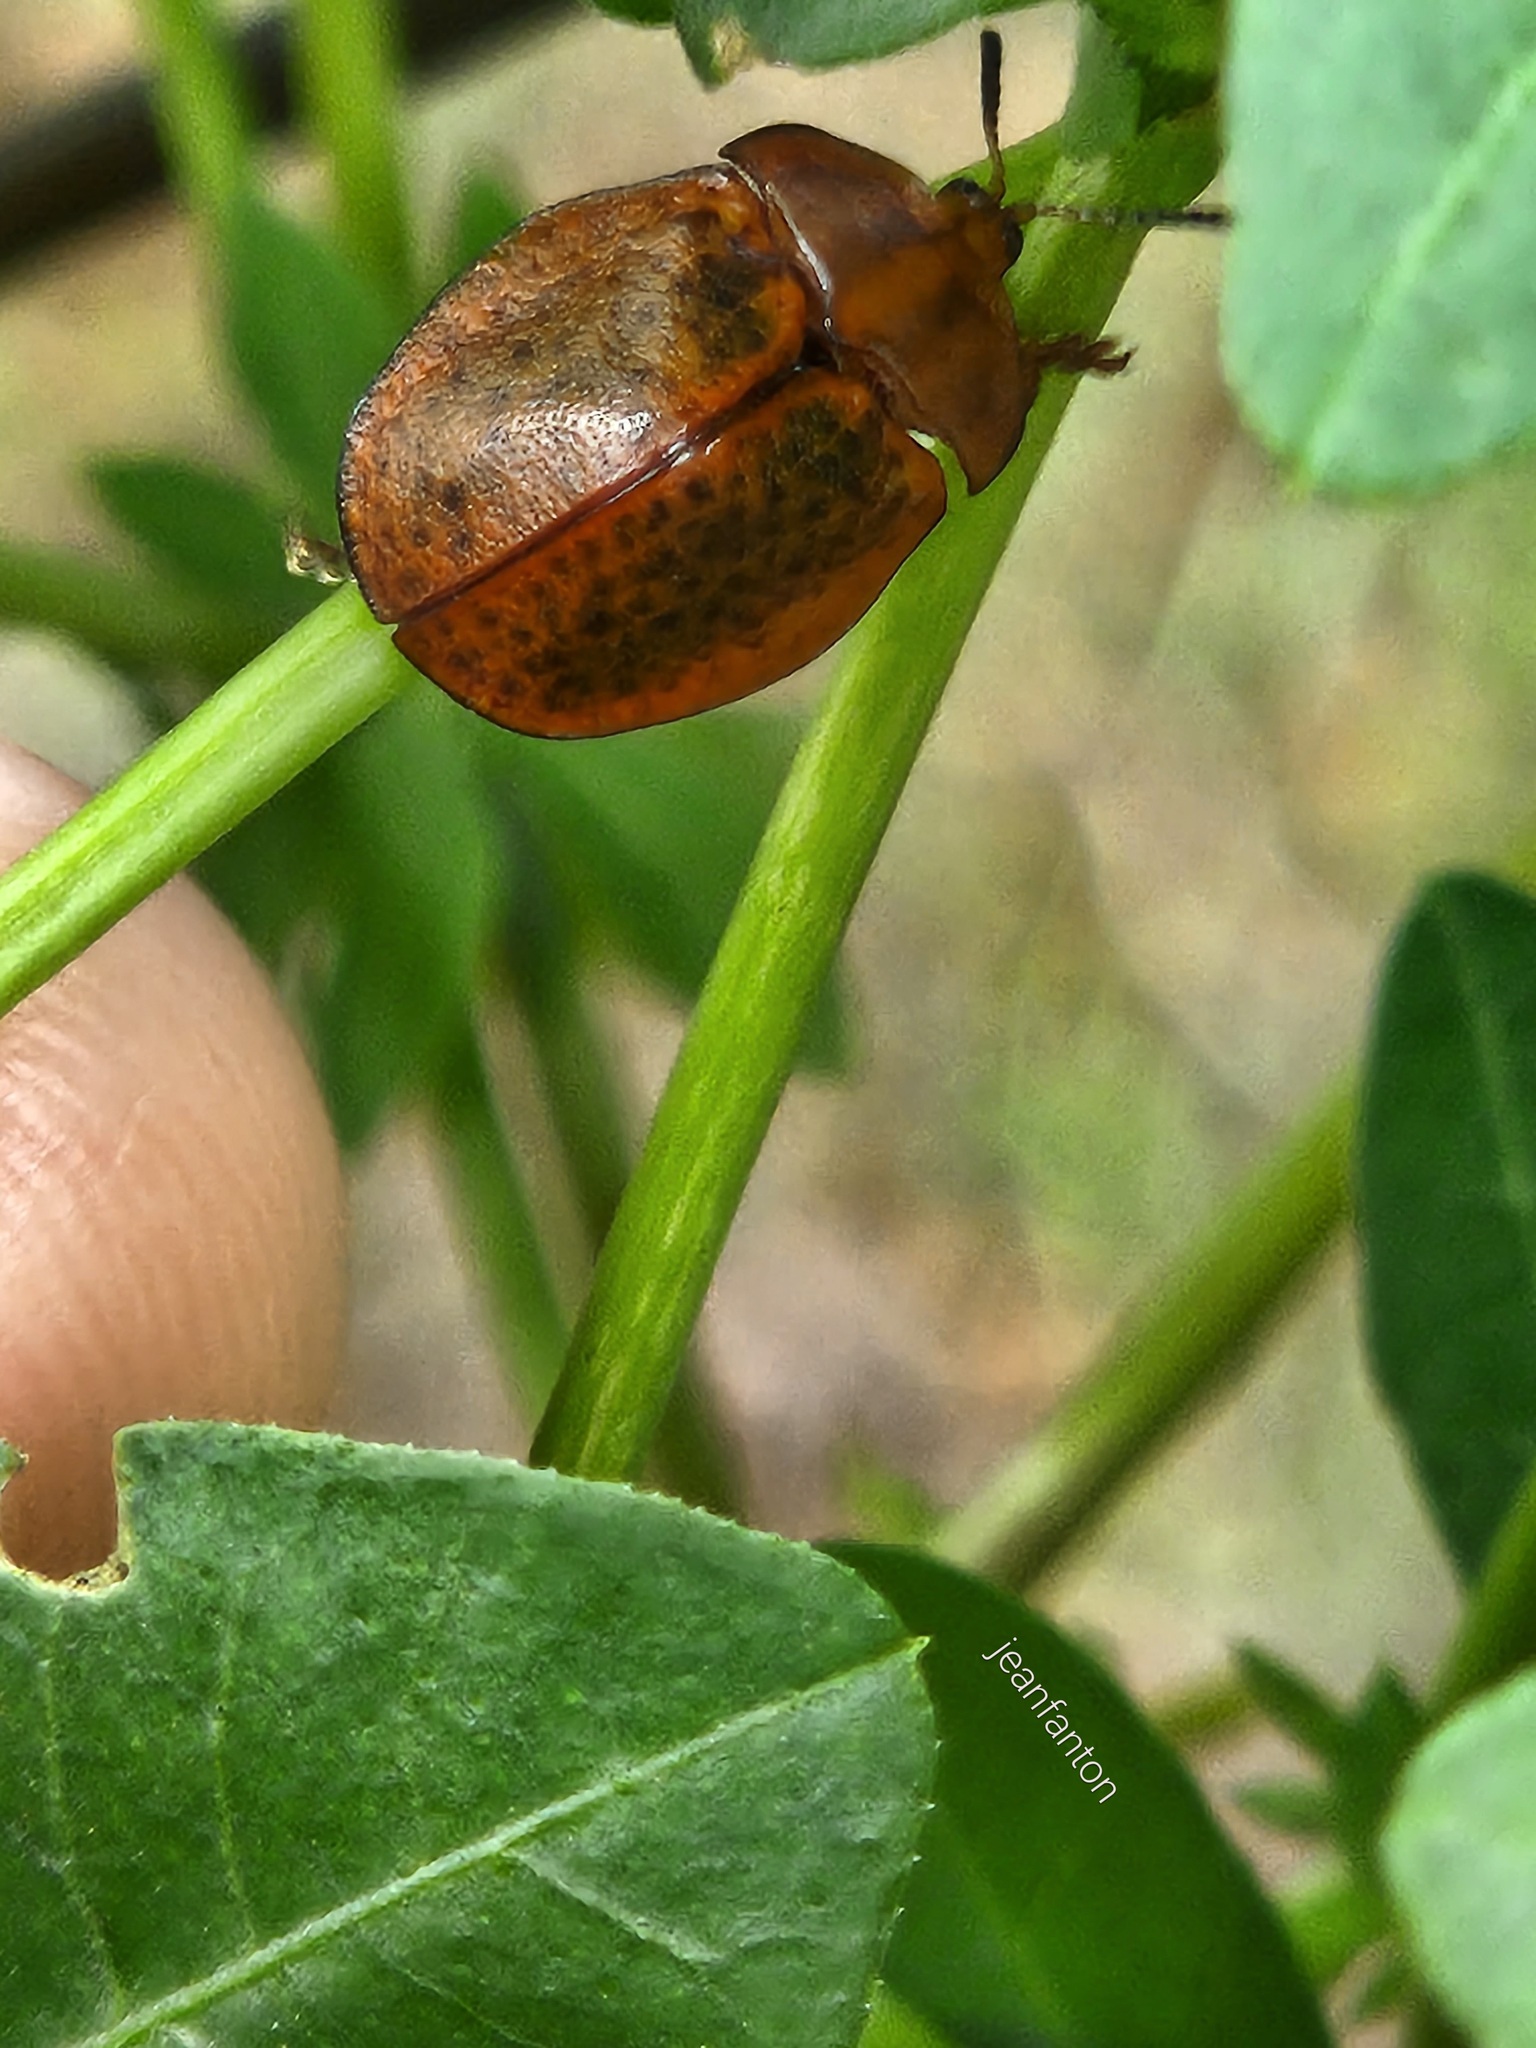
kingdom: Animalia
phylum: Arthropoda
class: Insecta
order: Coleoptera
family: Chrysomelidae
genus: Chelymorpha
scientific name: Chelymorpha inflata
